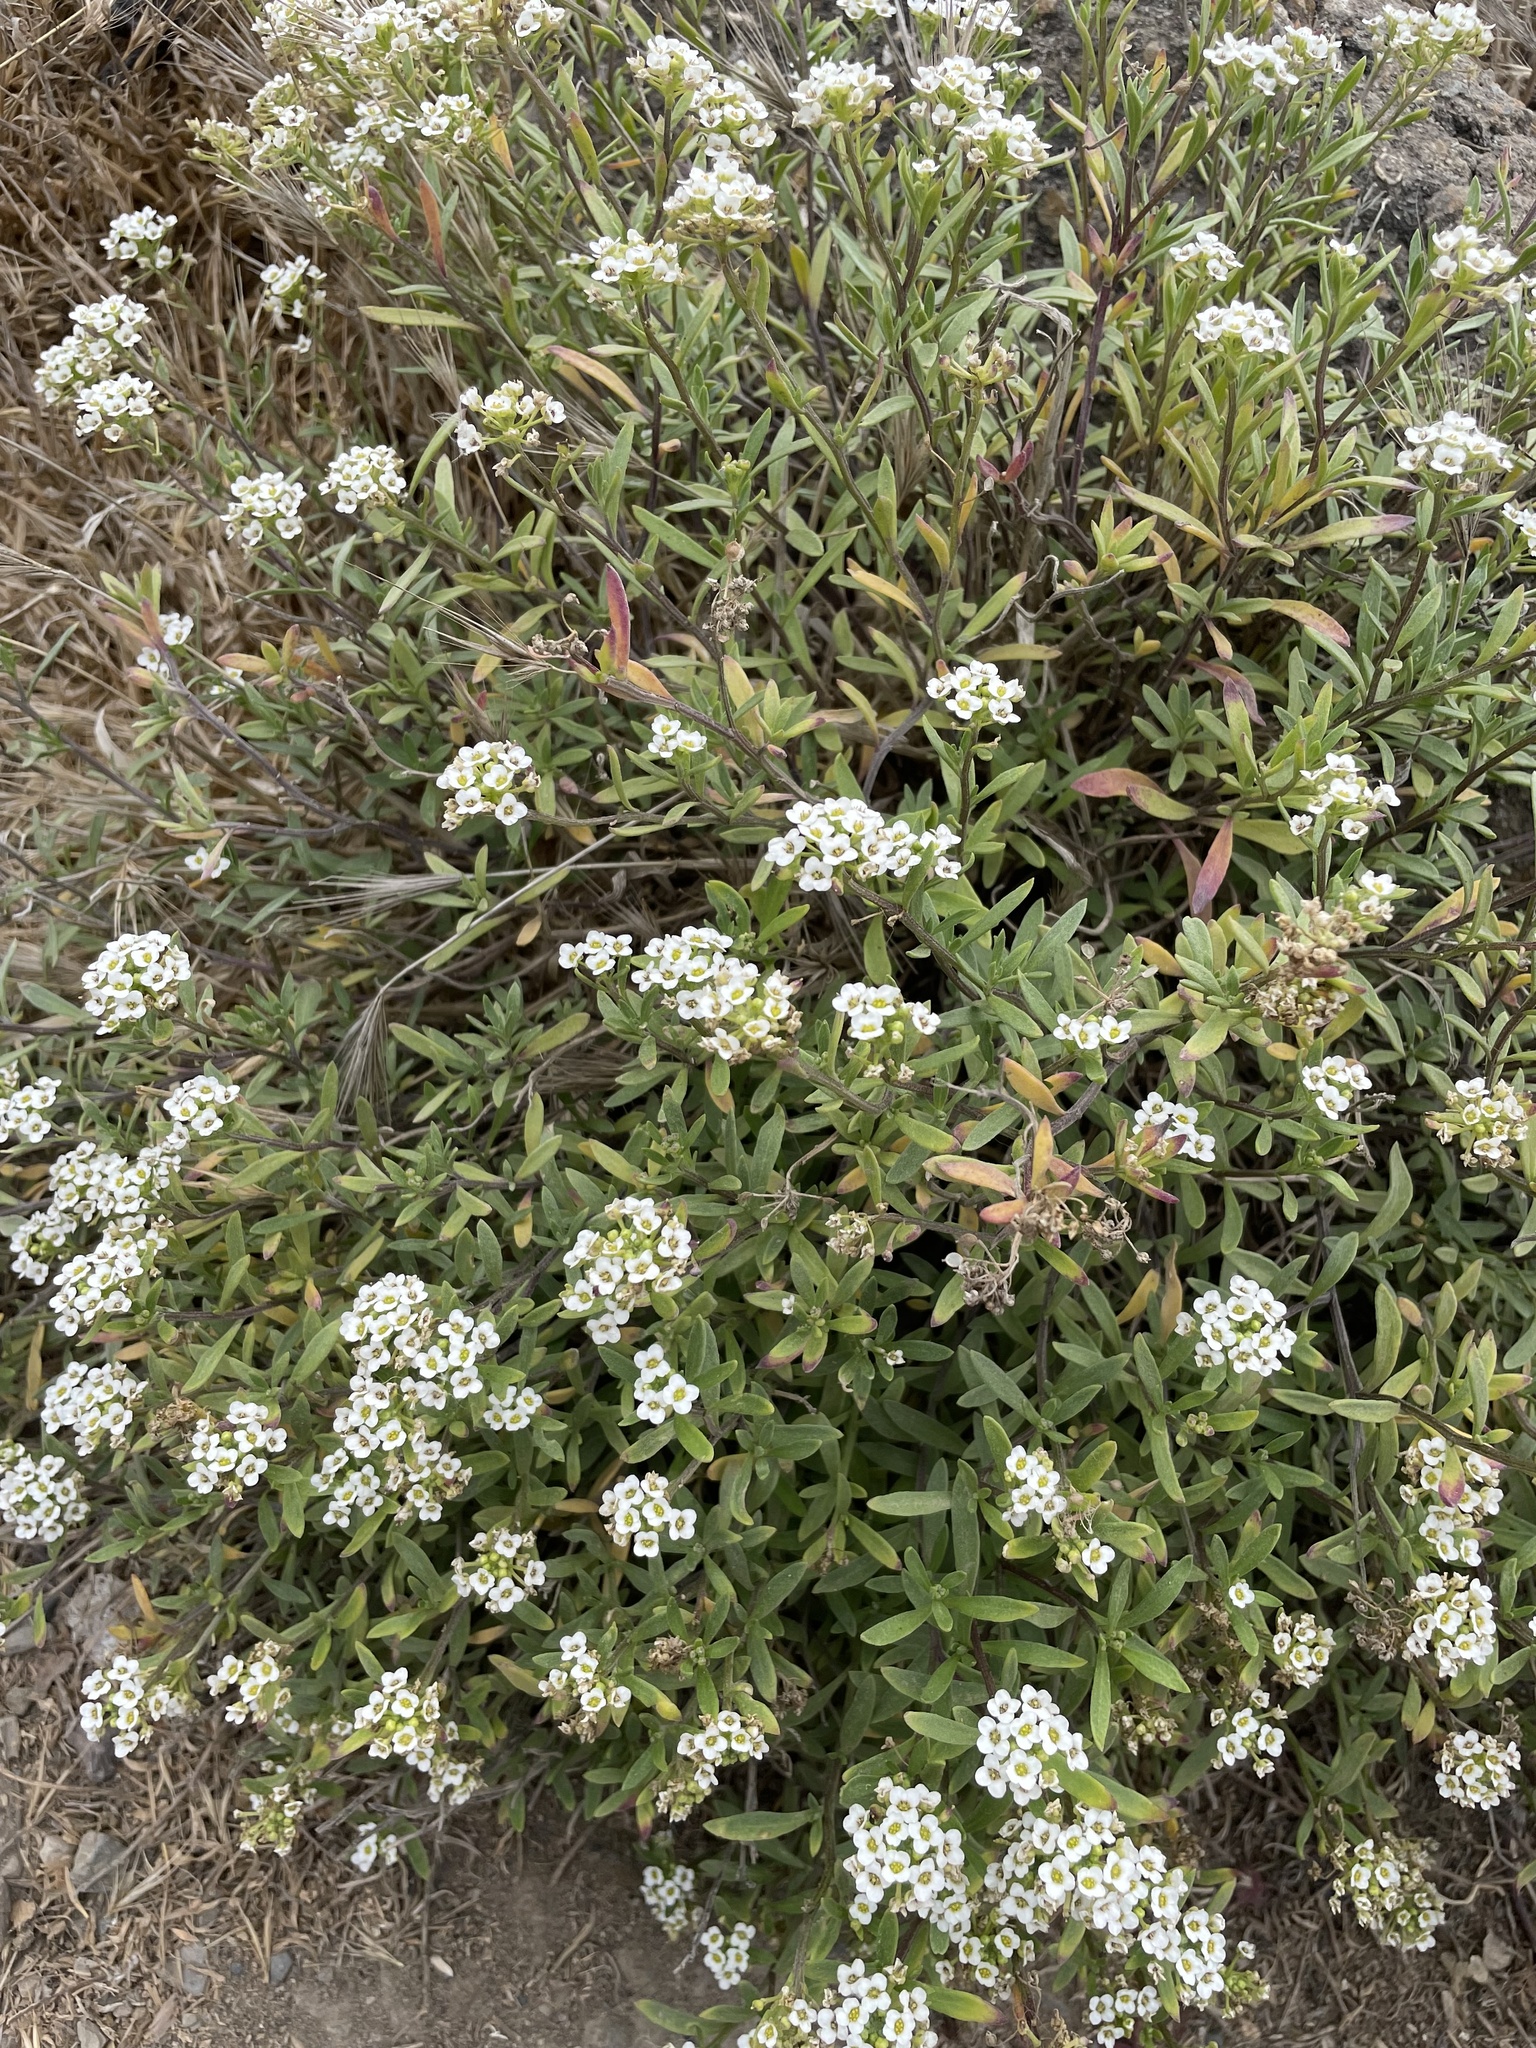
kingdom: Plantae
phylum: Tracheophyta
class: Magnoliopsida
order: Brassicales
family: Brassicaceae
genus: Lobularia
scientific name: Lobularia maritima
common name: Sweet alison
